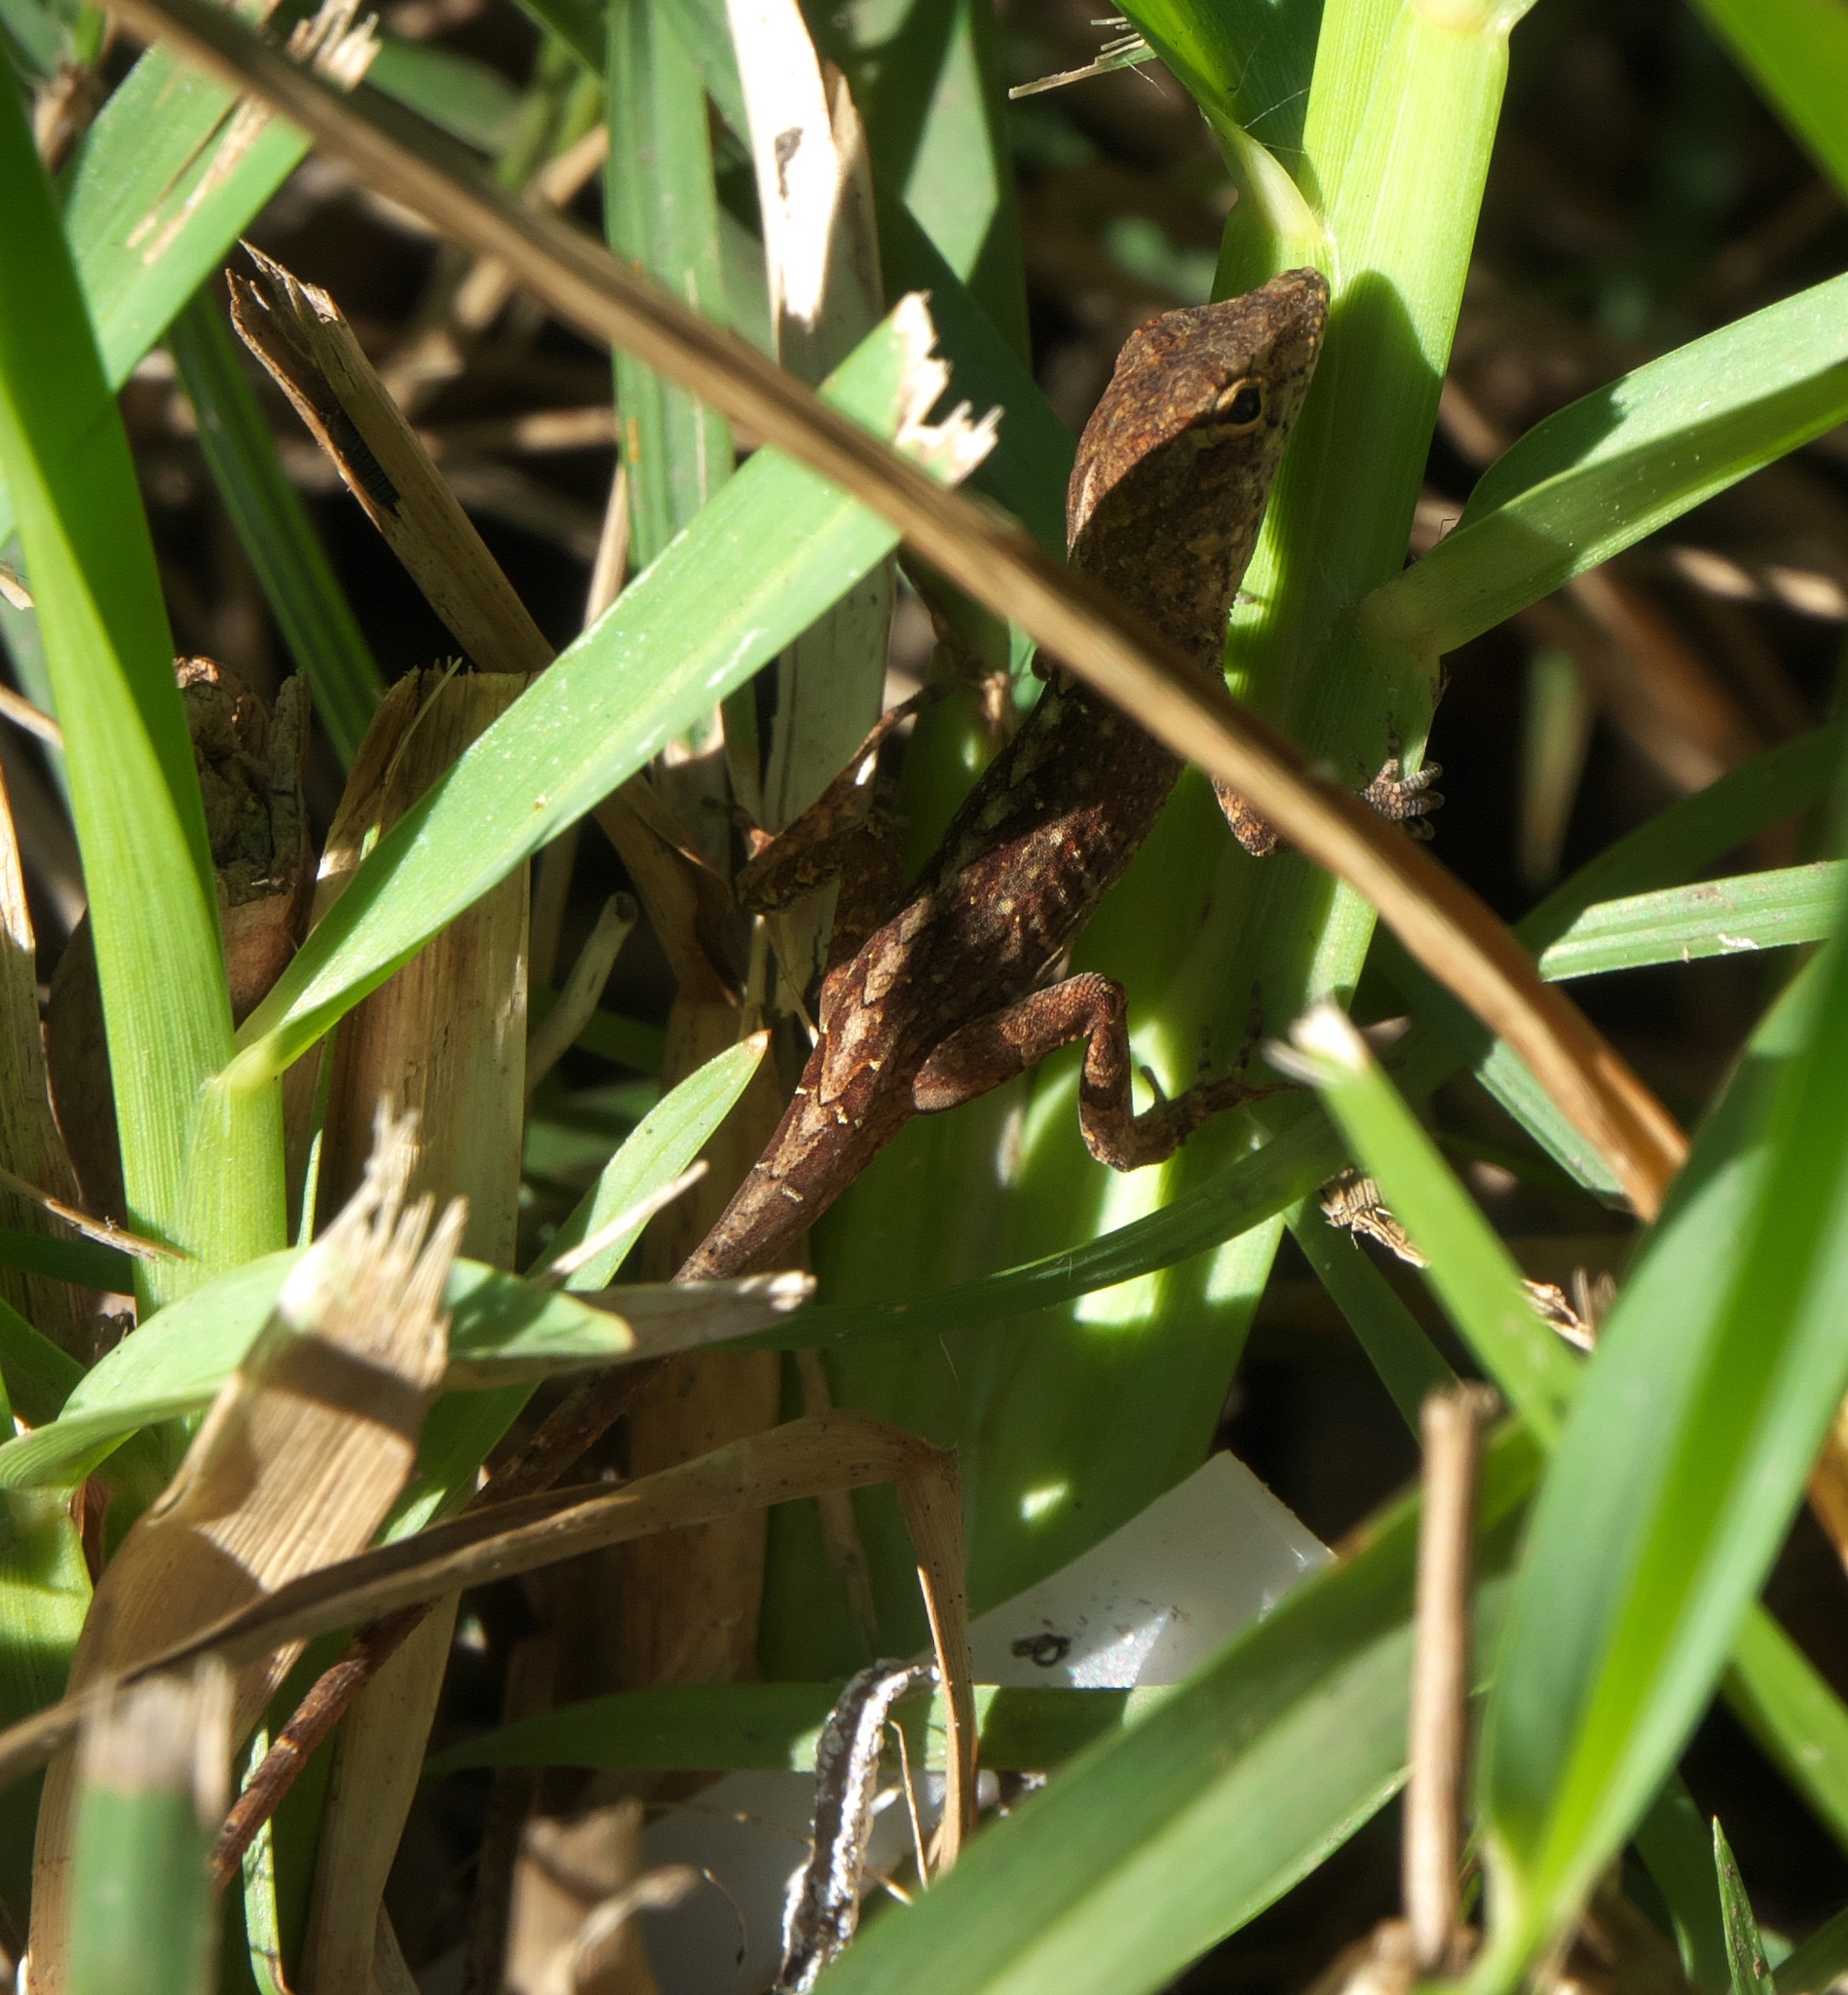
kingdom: Animalia
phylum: Chordata
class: Squamata
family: Dactyloidae
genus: Anolis
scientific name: Anolis sagrei
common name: Brown anole
